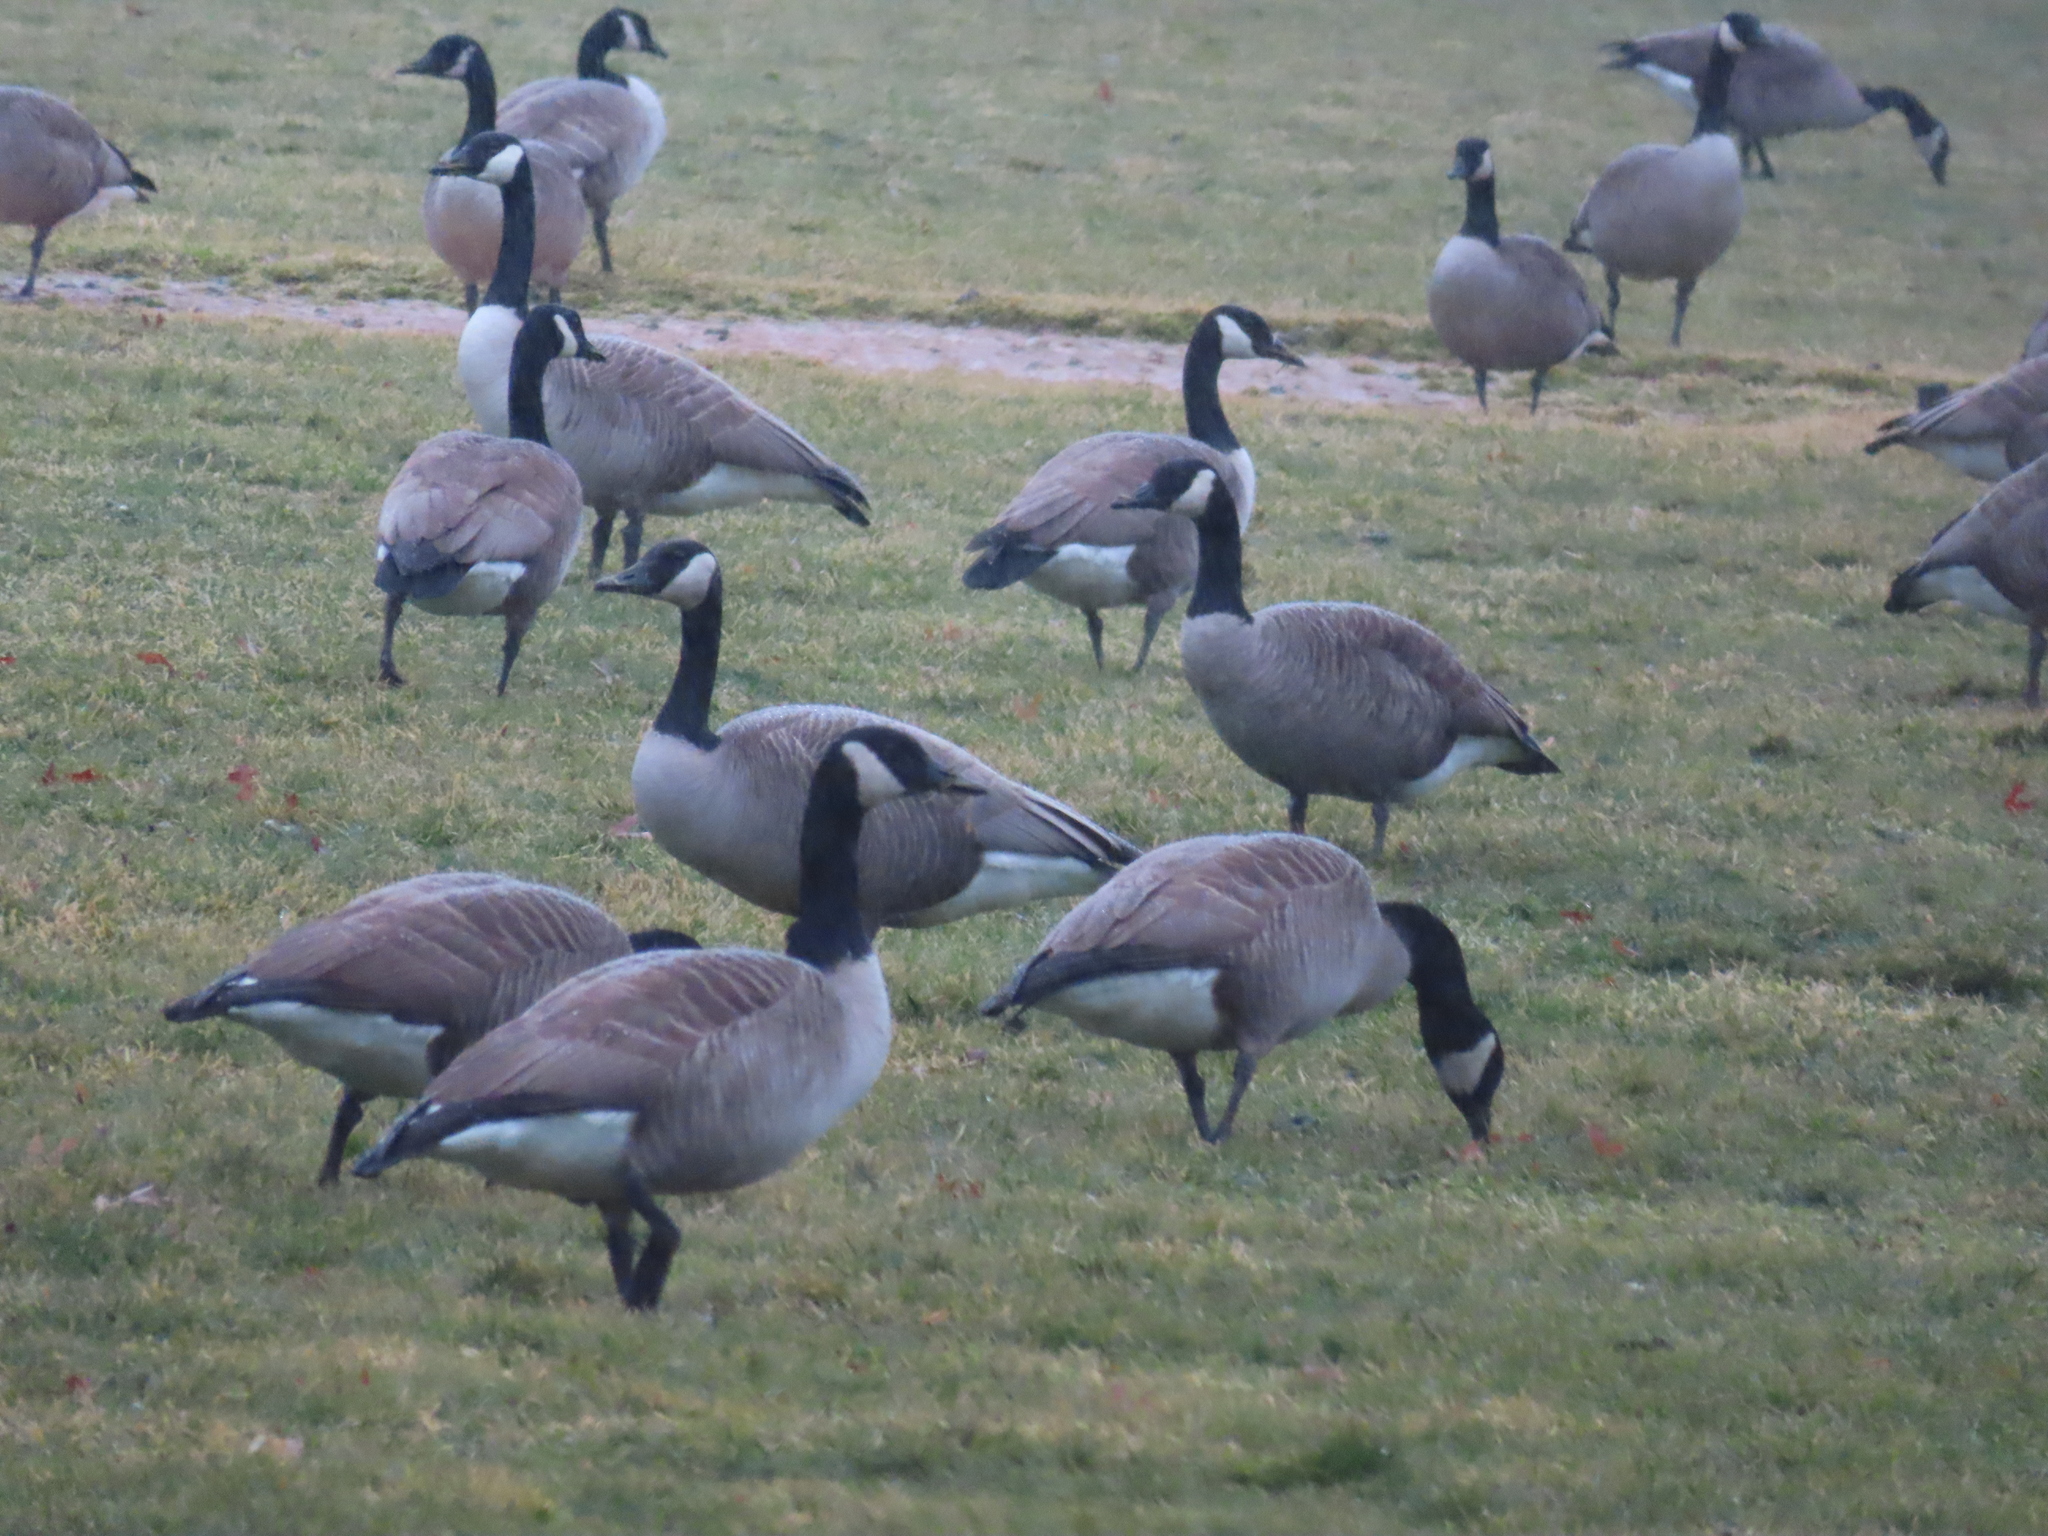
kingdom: Animalia
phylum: Chordata
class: Aves
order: Anseriformes
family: Anatidae
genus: Branta
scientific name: Branta canadensis
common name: Canada goose
